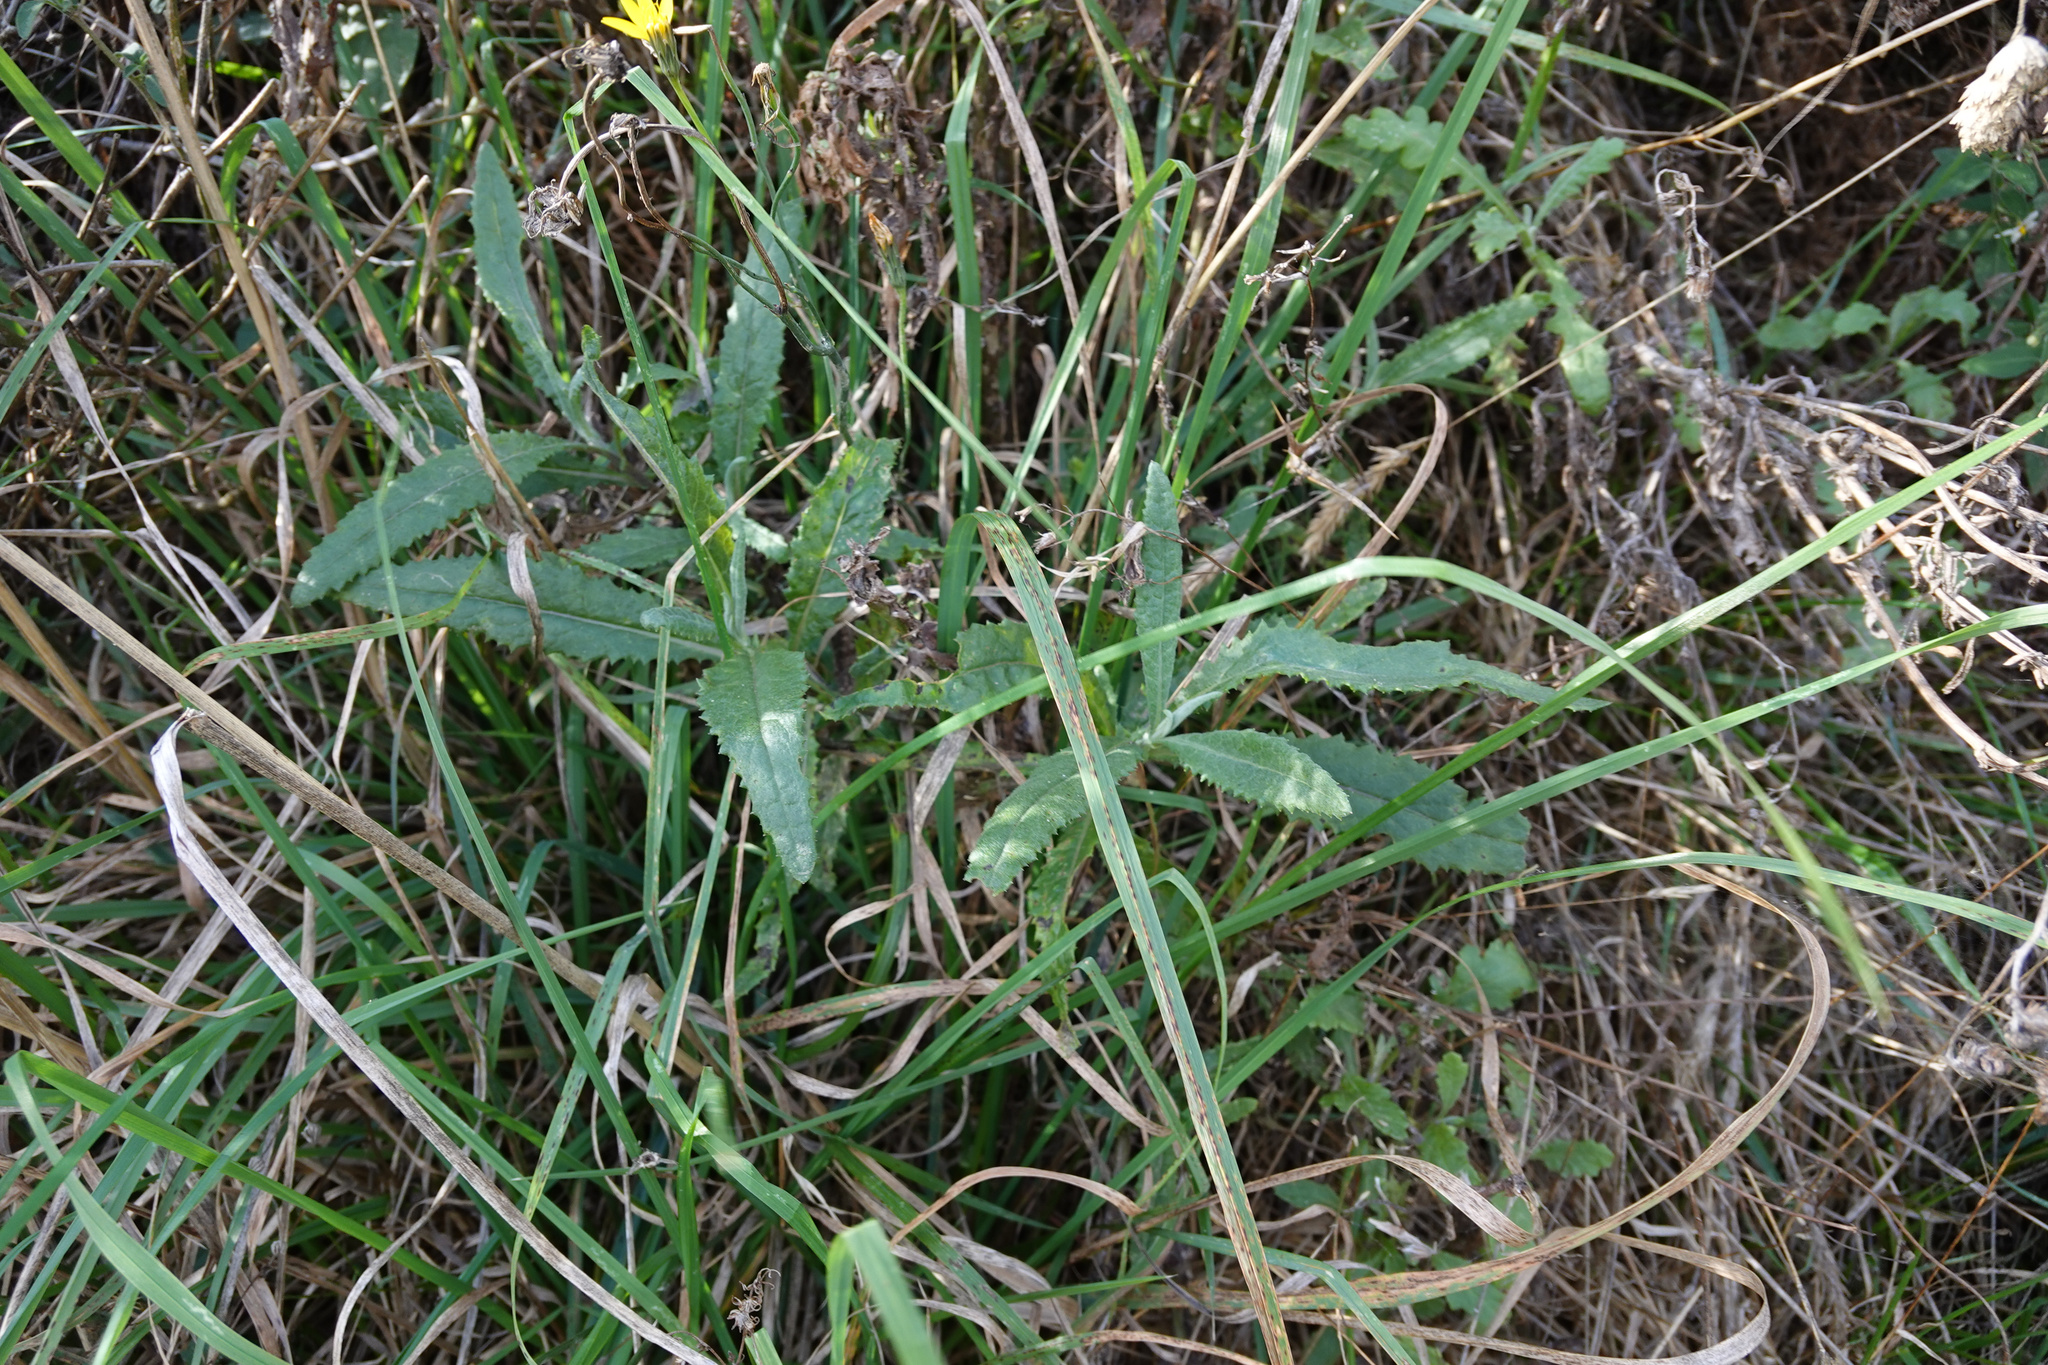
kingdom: Plantae
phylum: Tracheophyta
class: Magnoliopsida
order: Asterales
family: Asteraceae
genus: Senecio
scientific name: Senecio minimus
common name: Toothed fireweed
